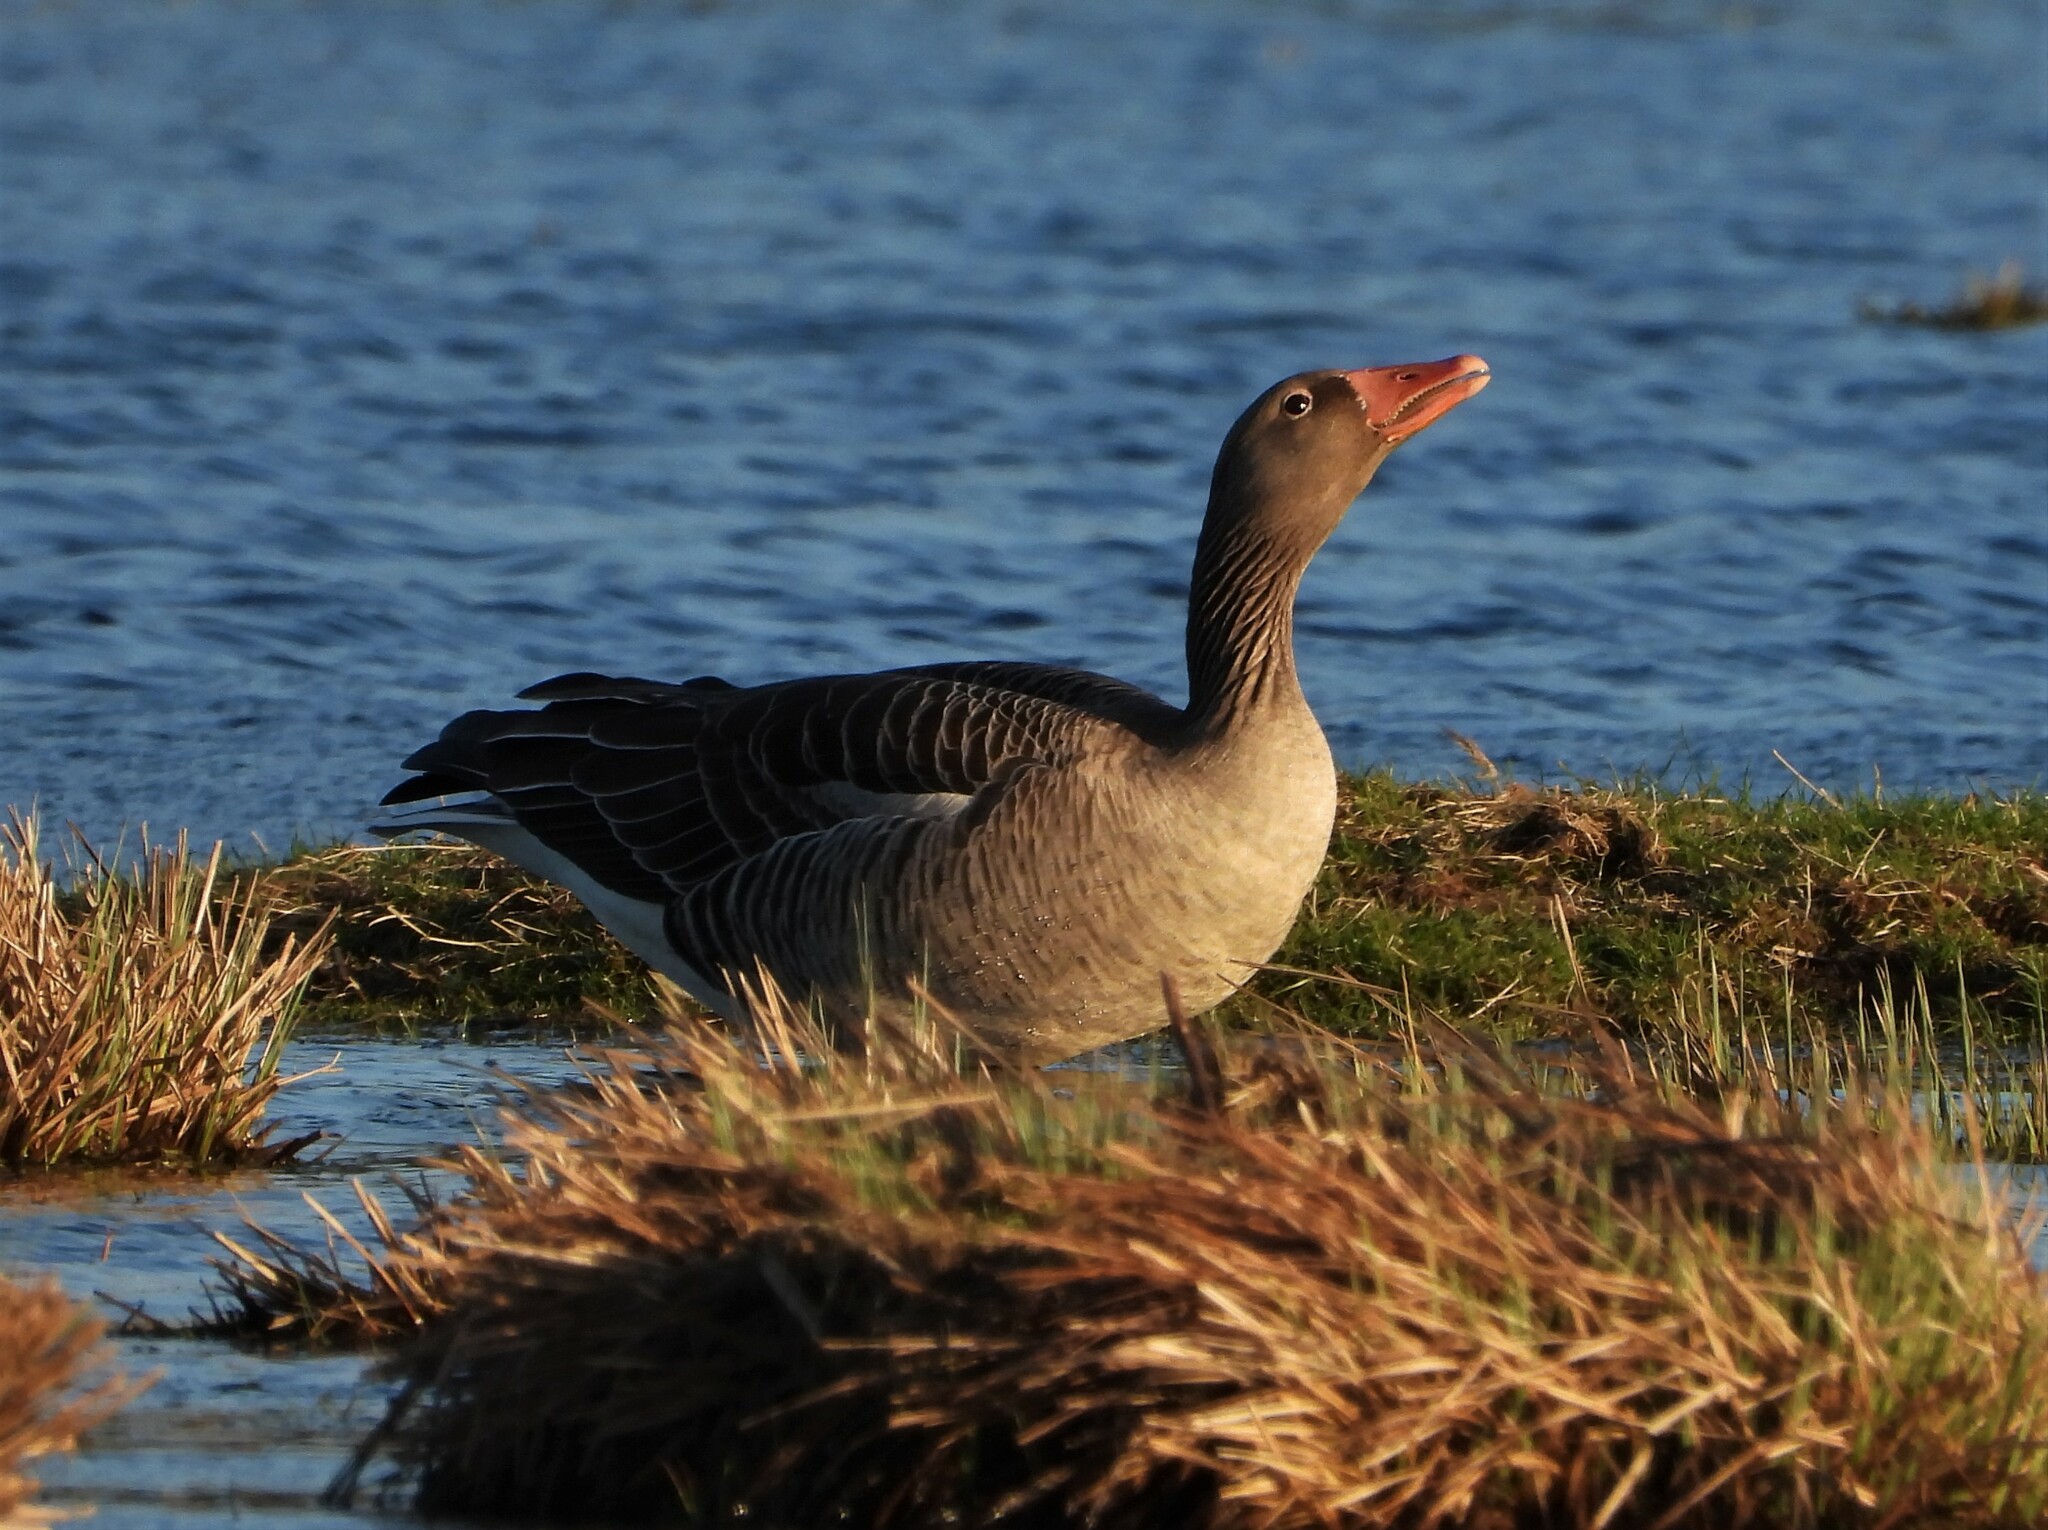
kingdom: Animalia
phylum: Chordata
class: Aves
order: Anseriformes
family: Anatidae
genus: Anser
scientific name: Anser anser
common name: Greylag goose
